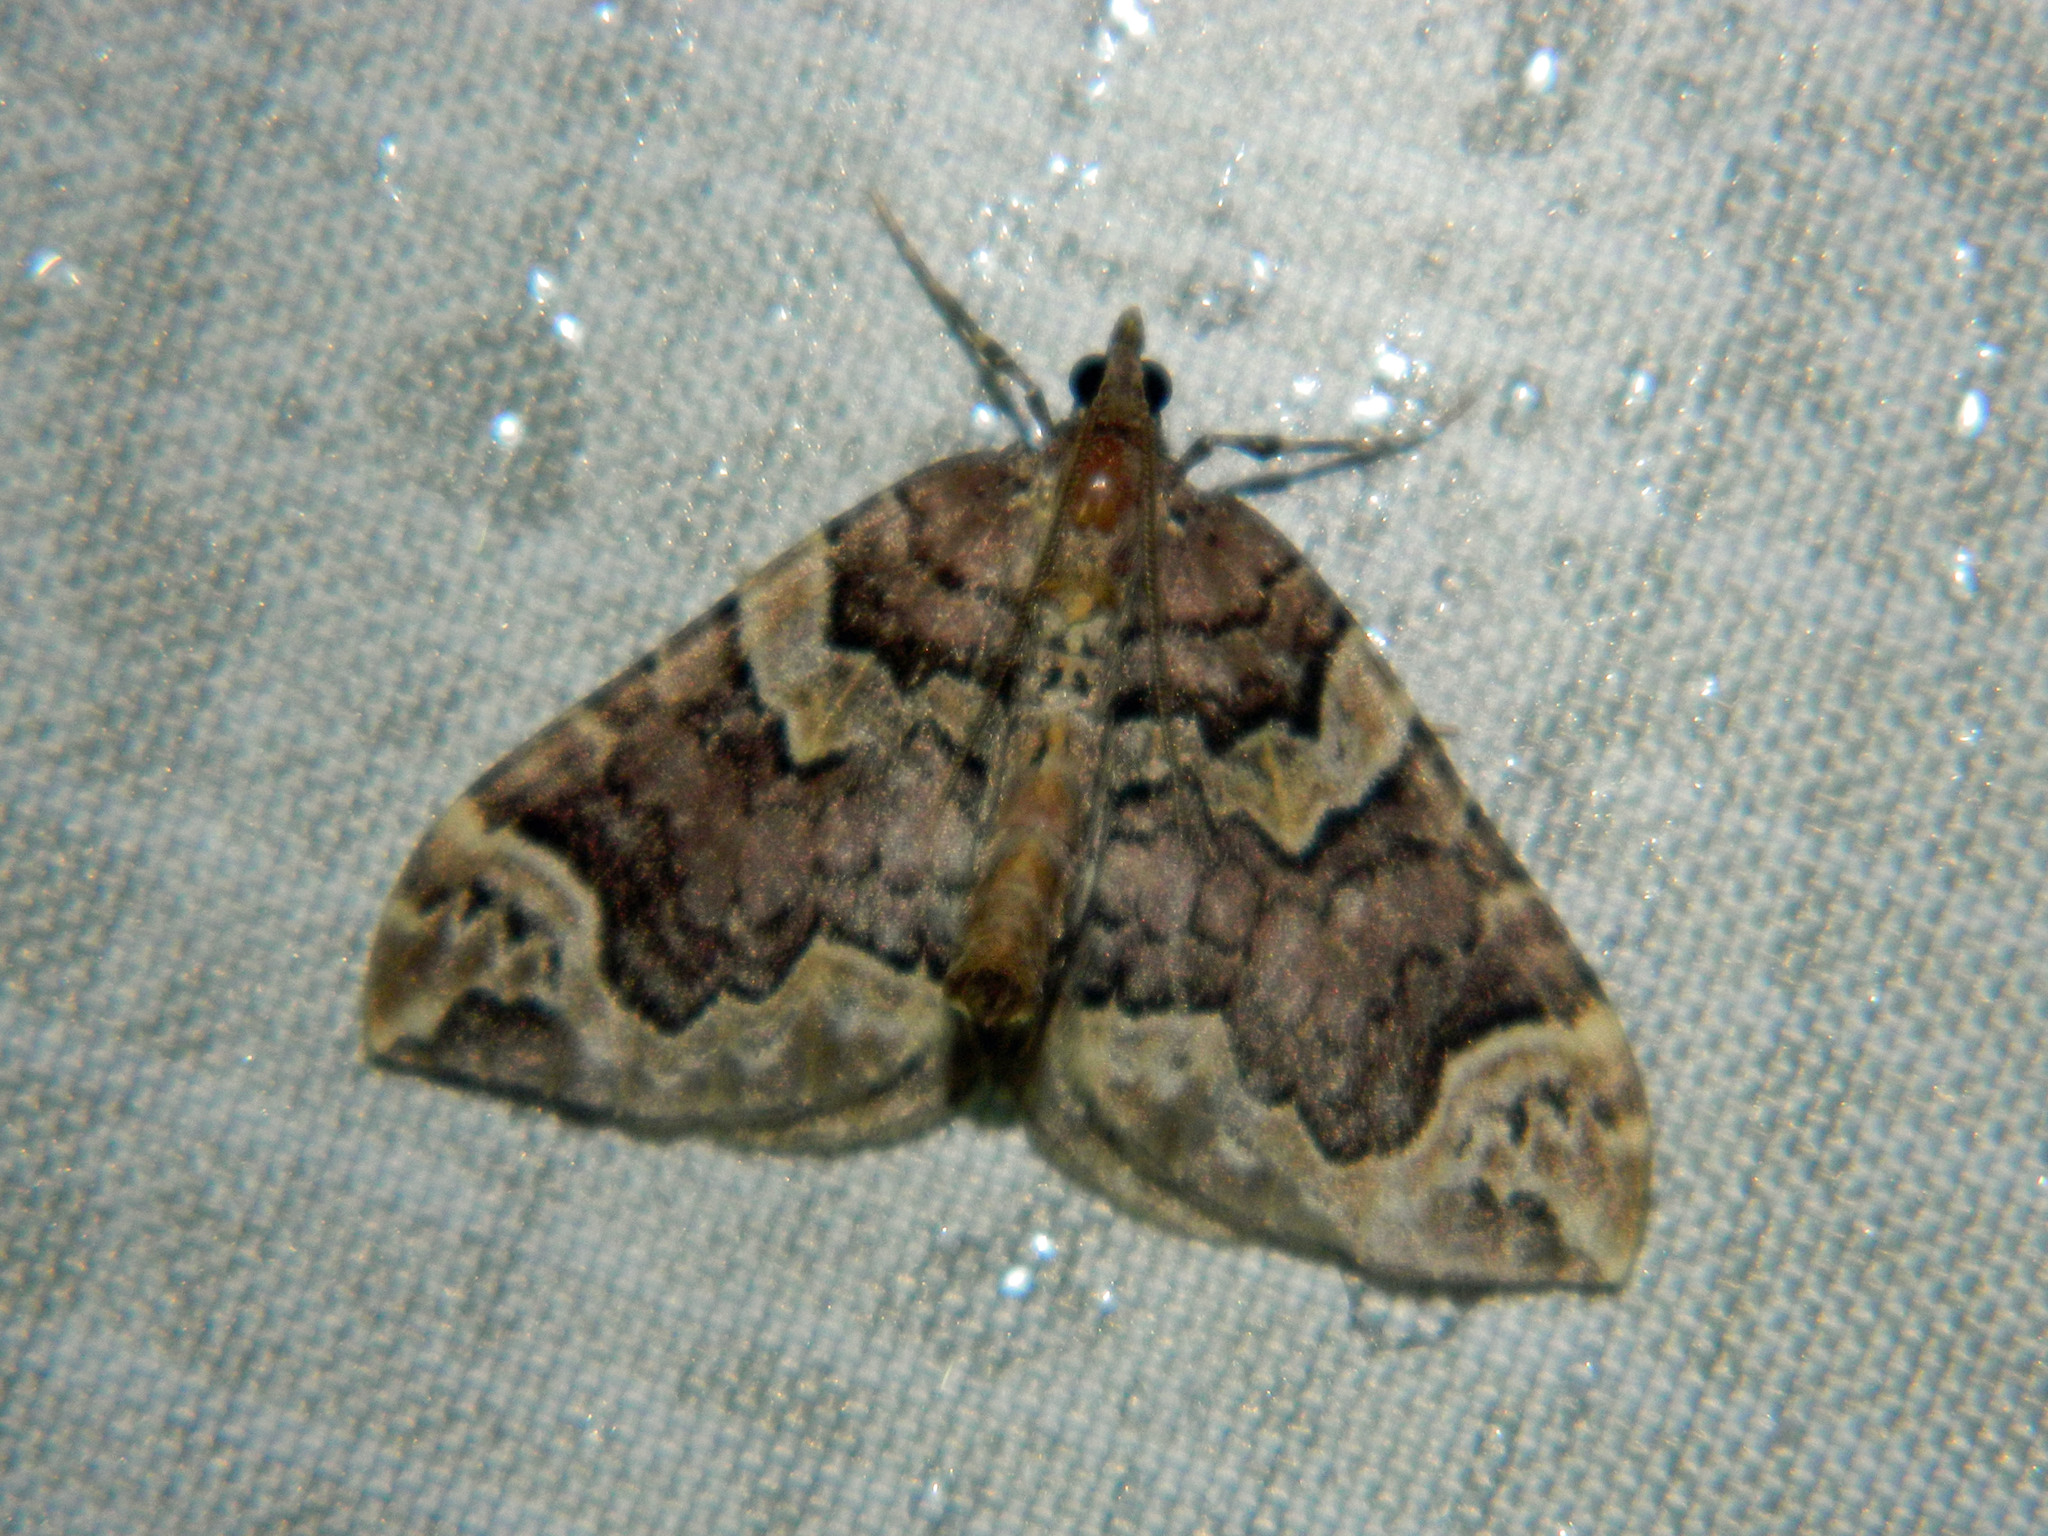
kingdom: Animalia
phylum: Arthropoda
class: Insecta
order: Lepidoptera
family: Geometridae
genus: Eulithis
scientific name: Eulithis serrataria
